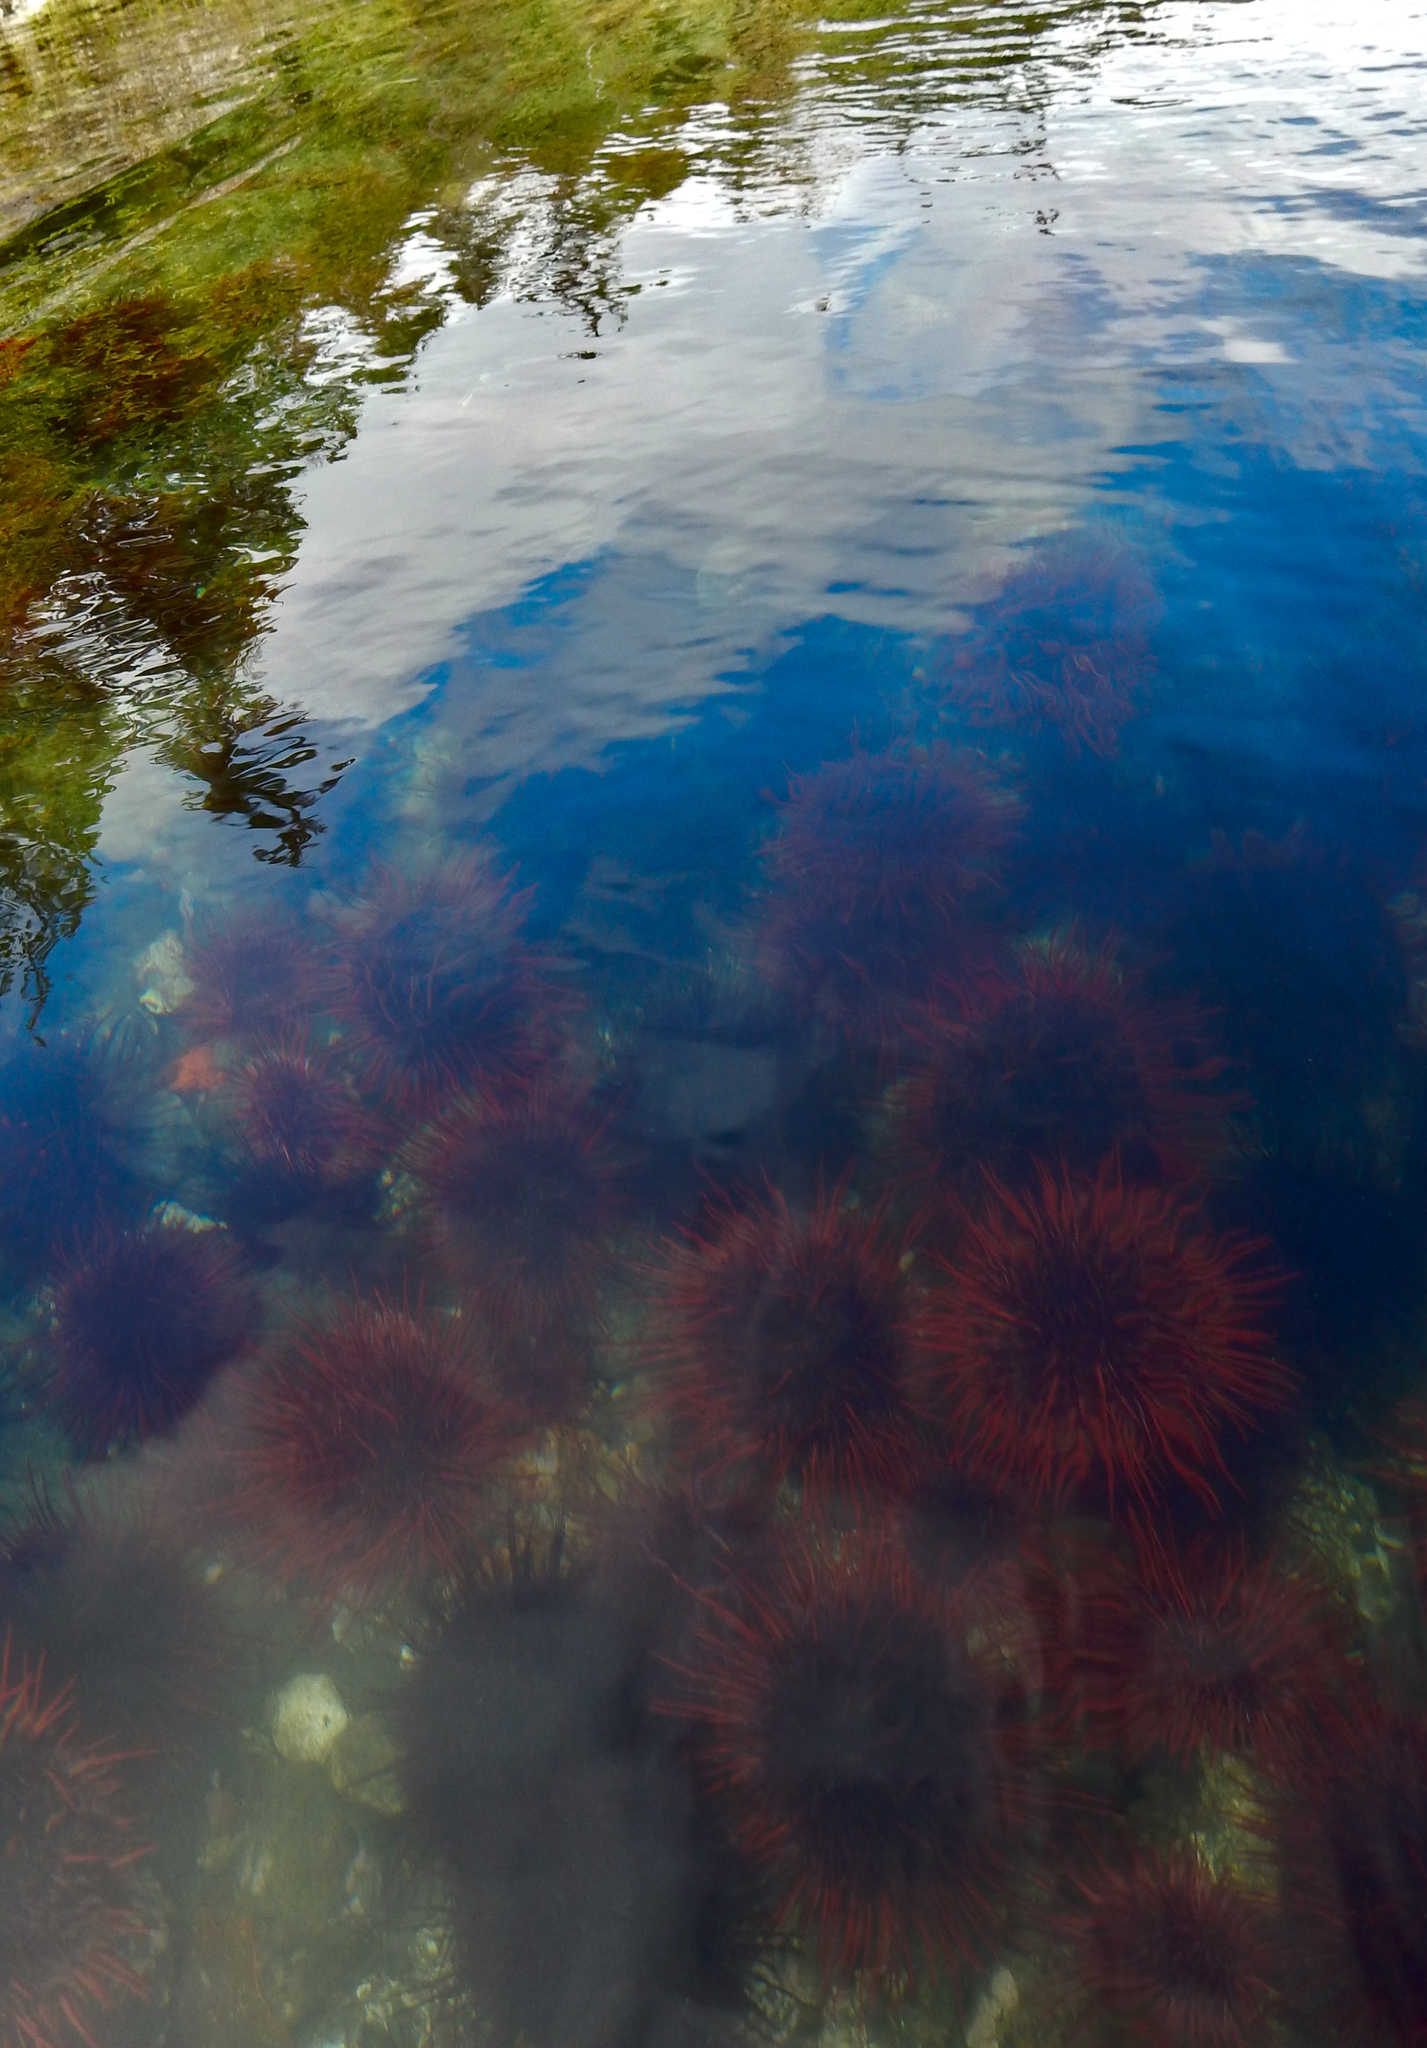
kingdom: Animalia
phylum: Echinodermata
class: Echinoidea
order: Camarodonta
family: Strongylocentrotidae
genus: Mesocentrotus
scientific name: Mesocentrotus franciscanus
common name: Red sea urchin
